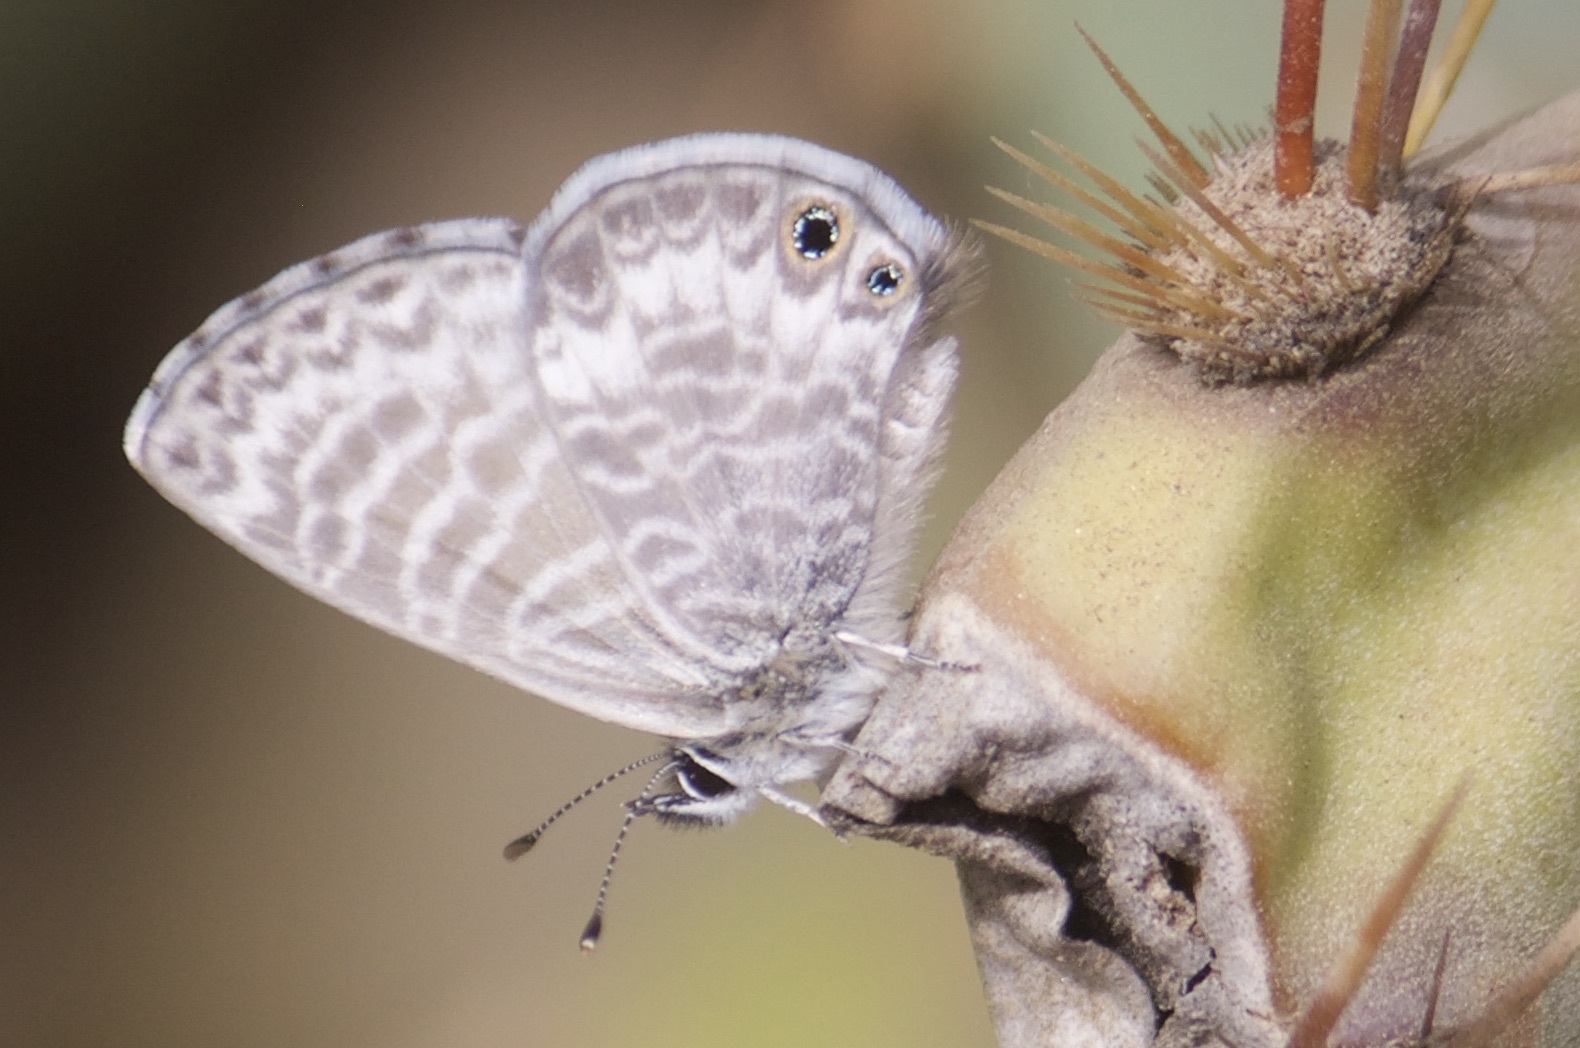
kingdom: Animalia
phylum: Arthropoda
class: Insecta
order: Lepidoptera
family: Lycaenidae
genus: Leptotes
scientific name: Leptotes marina
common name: Marine blue
